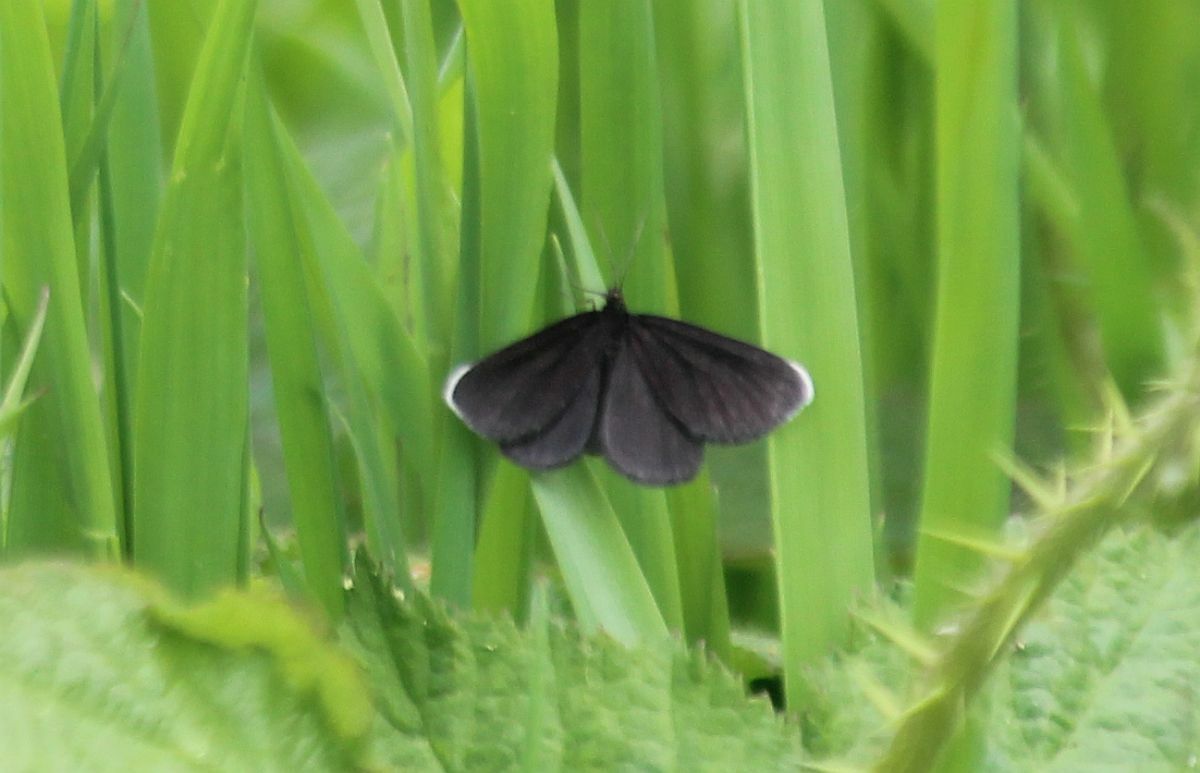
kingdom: Animalia
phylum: Arthropoda
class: Insecta
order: Lepidoptera
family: Geometridae
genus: Odezia
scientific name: Odezia atrata
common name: Chimney sweeper
